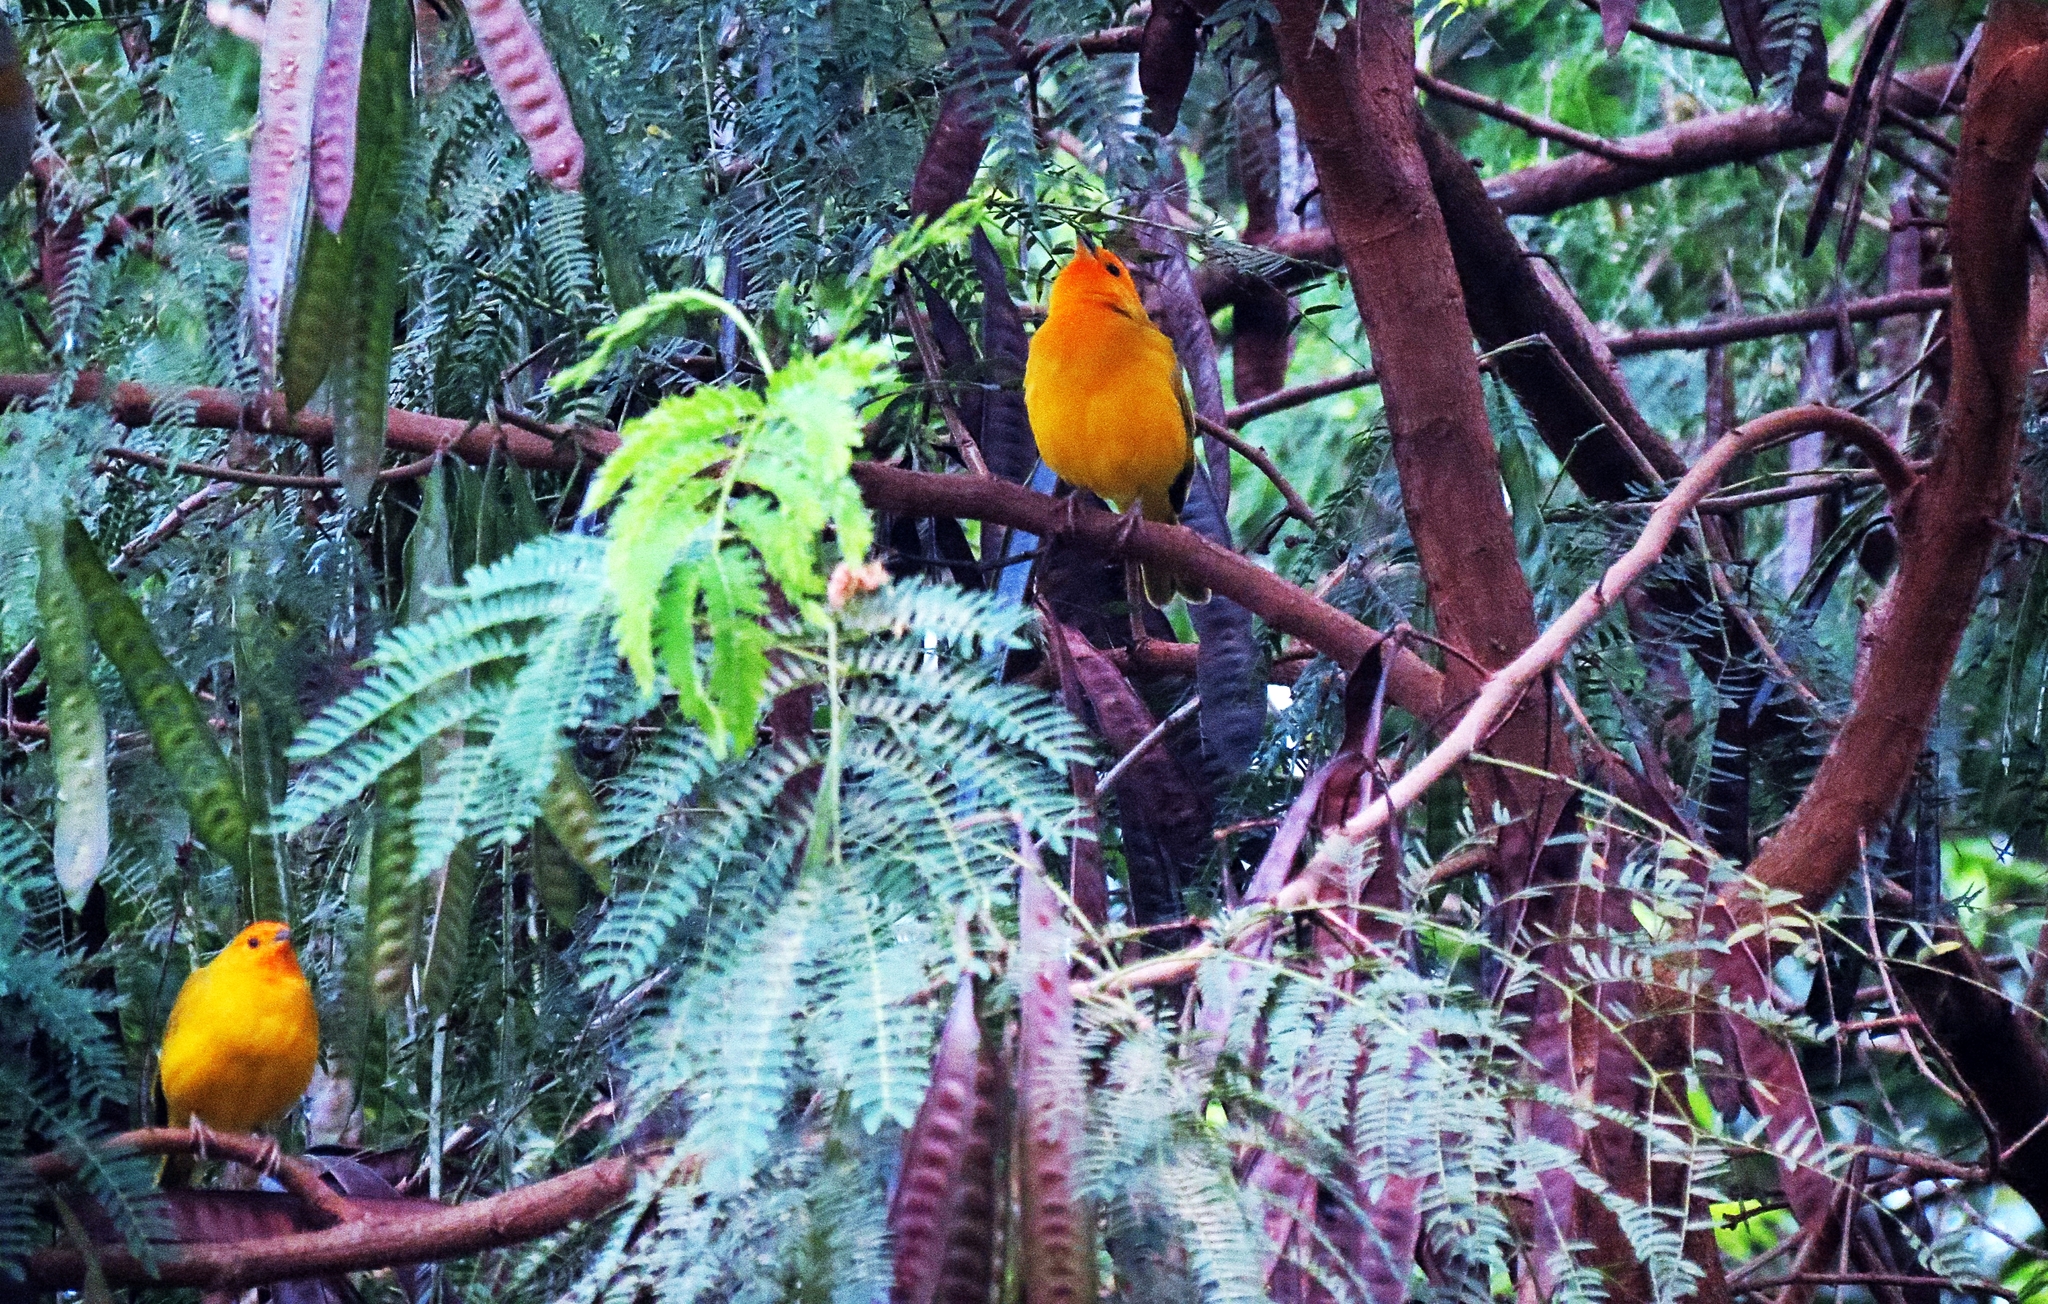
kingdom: Animalia
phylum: Chordata
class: Aves
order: Passeriformes
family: Thraupidae
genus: Sicalis
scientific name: Sicalis flaveola
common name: Saffron finch
